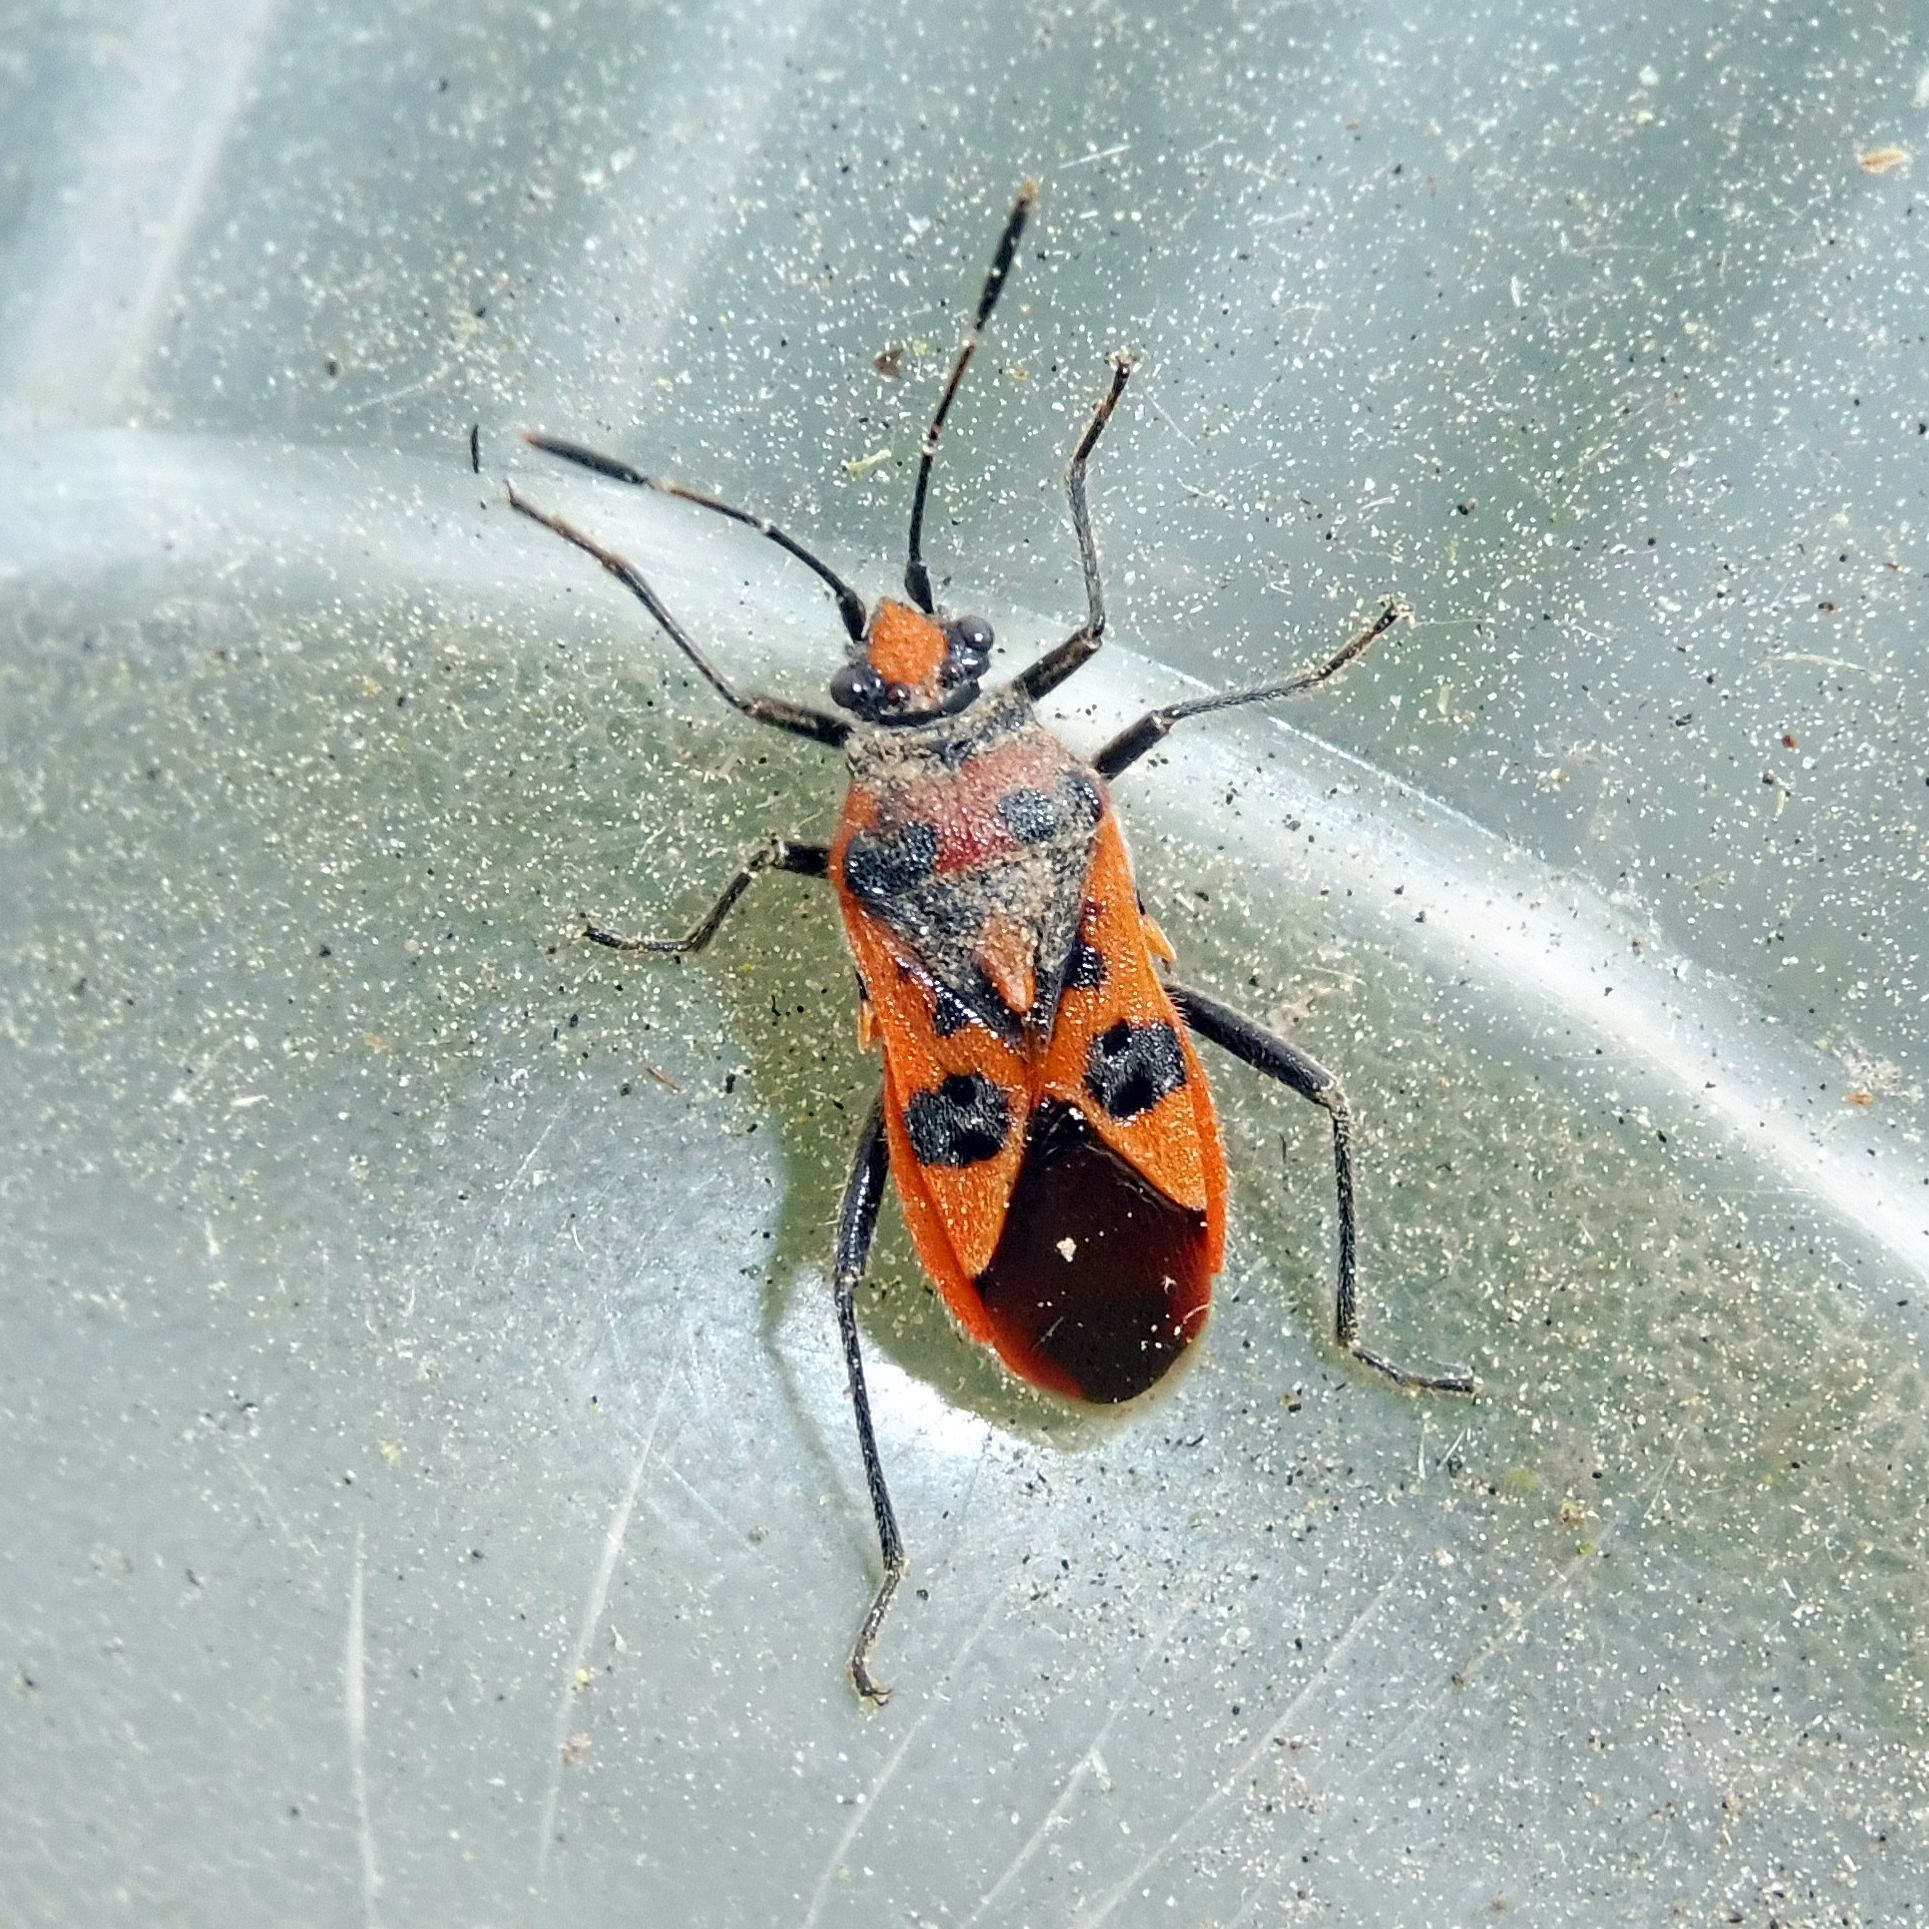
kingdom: Animalia
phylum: Arthropoda
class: Insecta
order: Hemiptera
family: Rhopalidae
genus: Corizus
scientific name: Corizus hyoscyami
